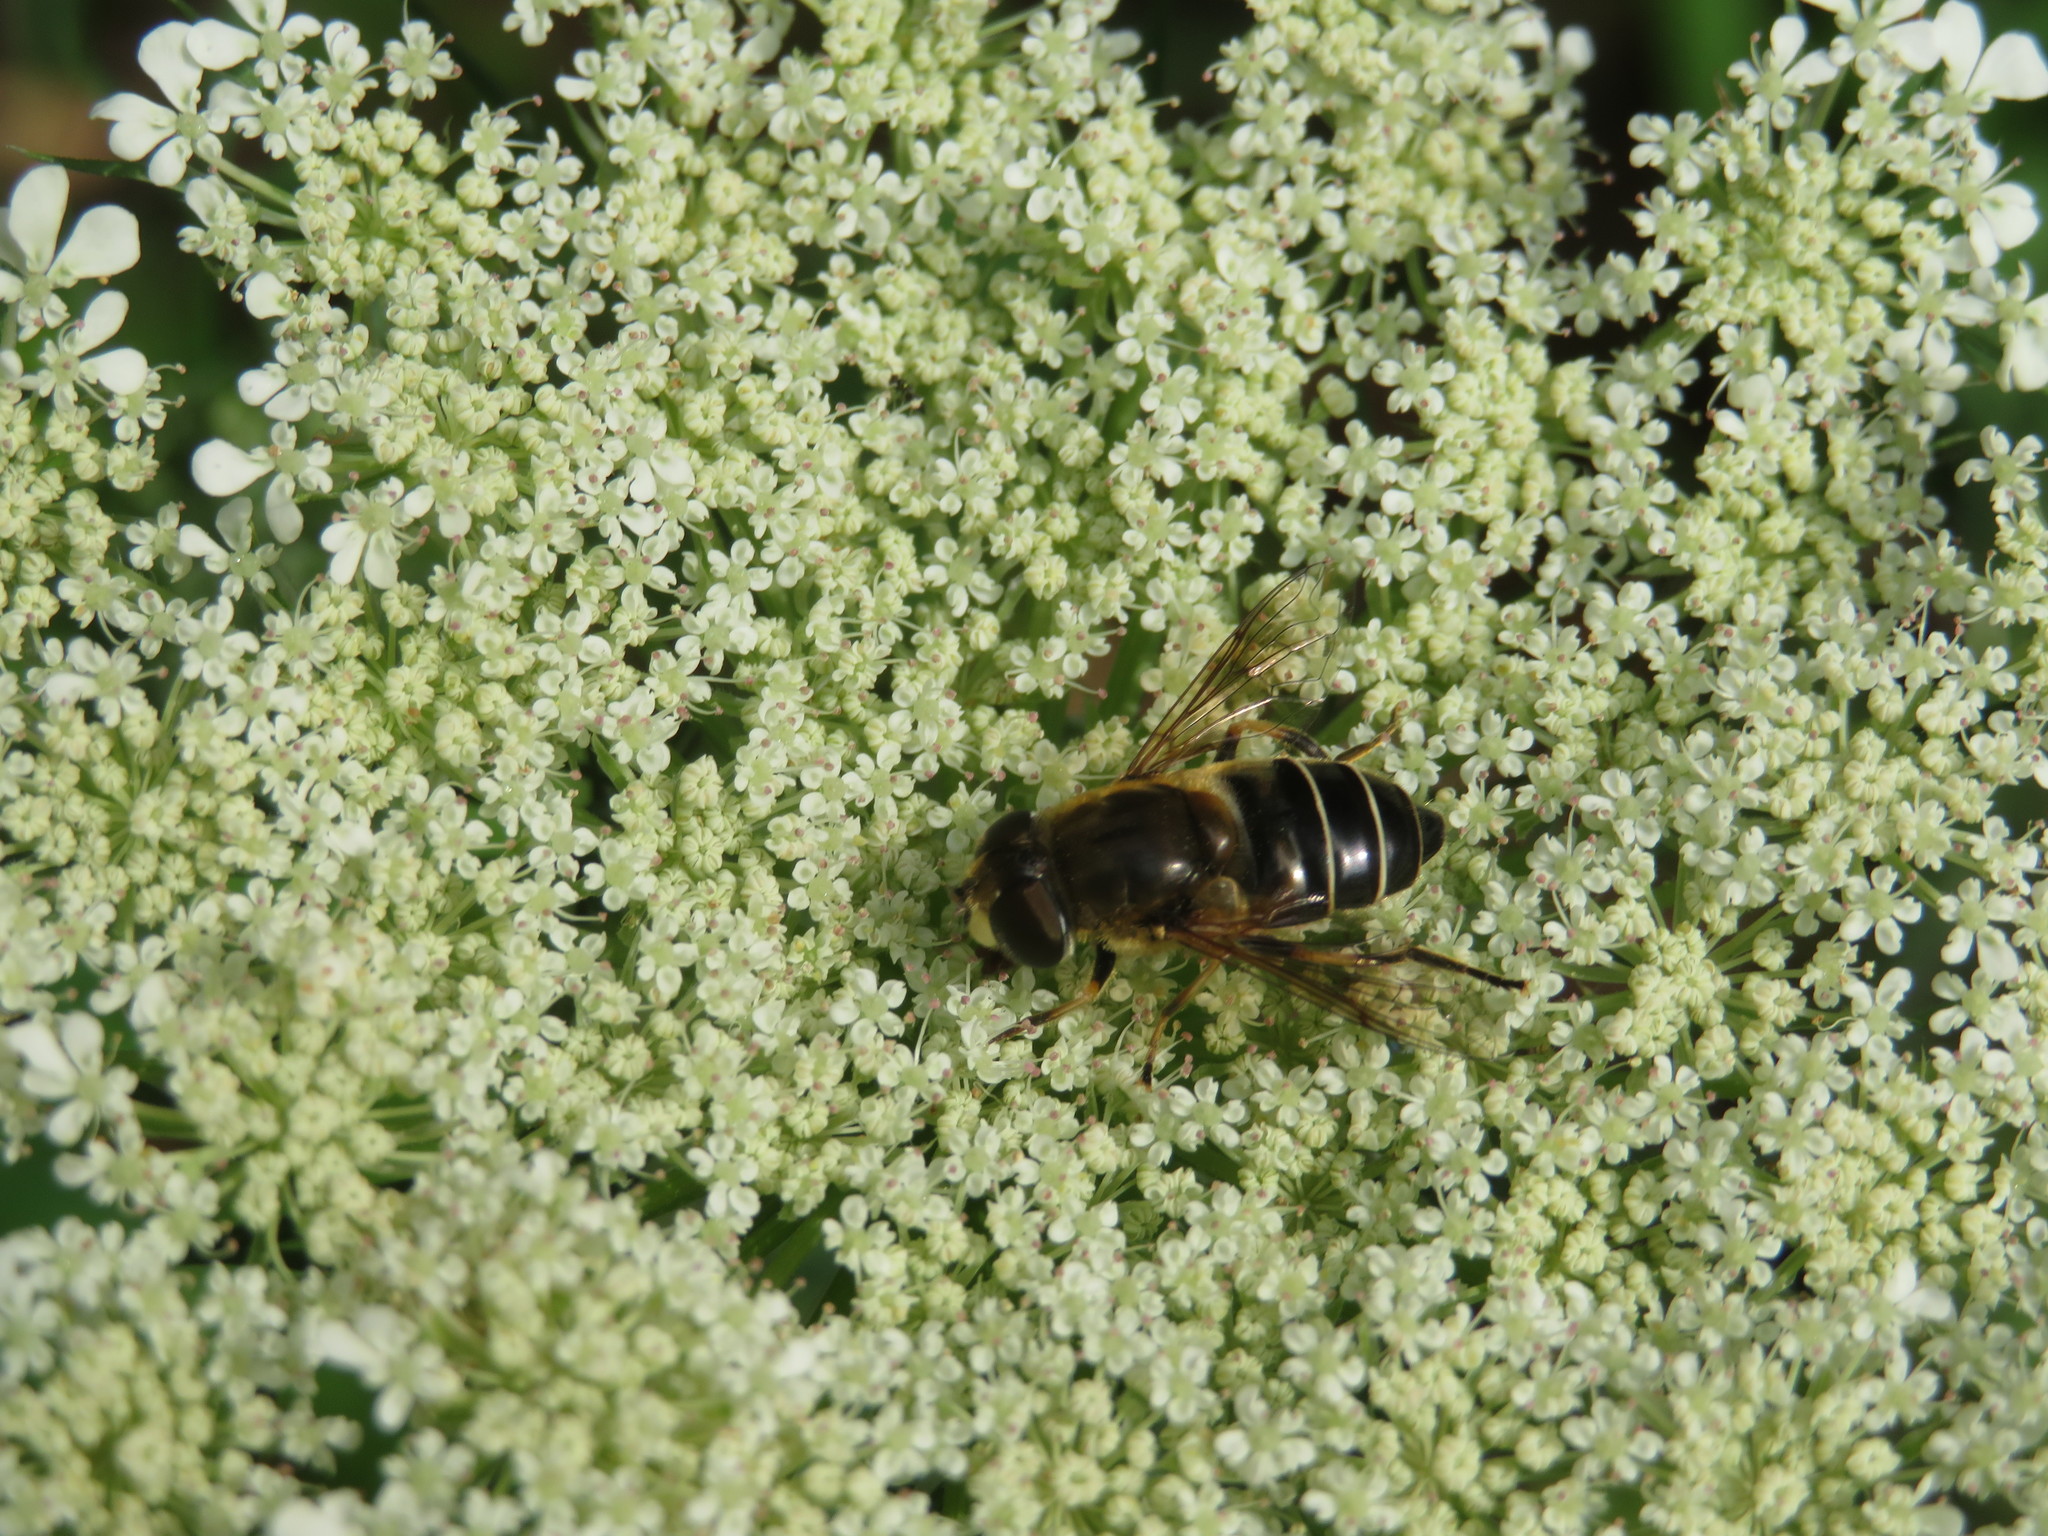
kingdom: Animalia
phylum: Arthropoda
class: Insecta
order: Diptera
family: Syrphidae
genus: Eristalis
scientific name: Eristalis nemorum
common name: Orange-spined drone fly
